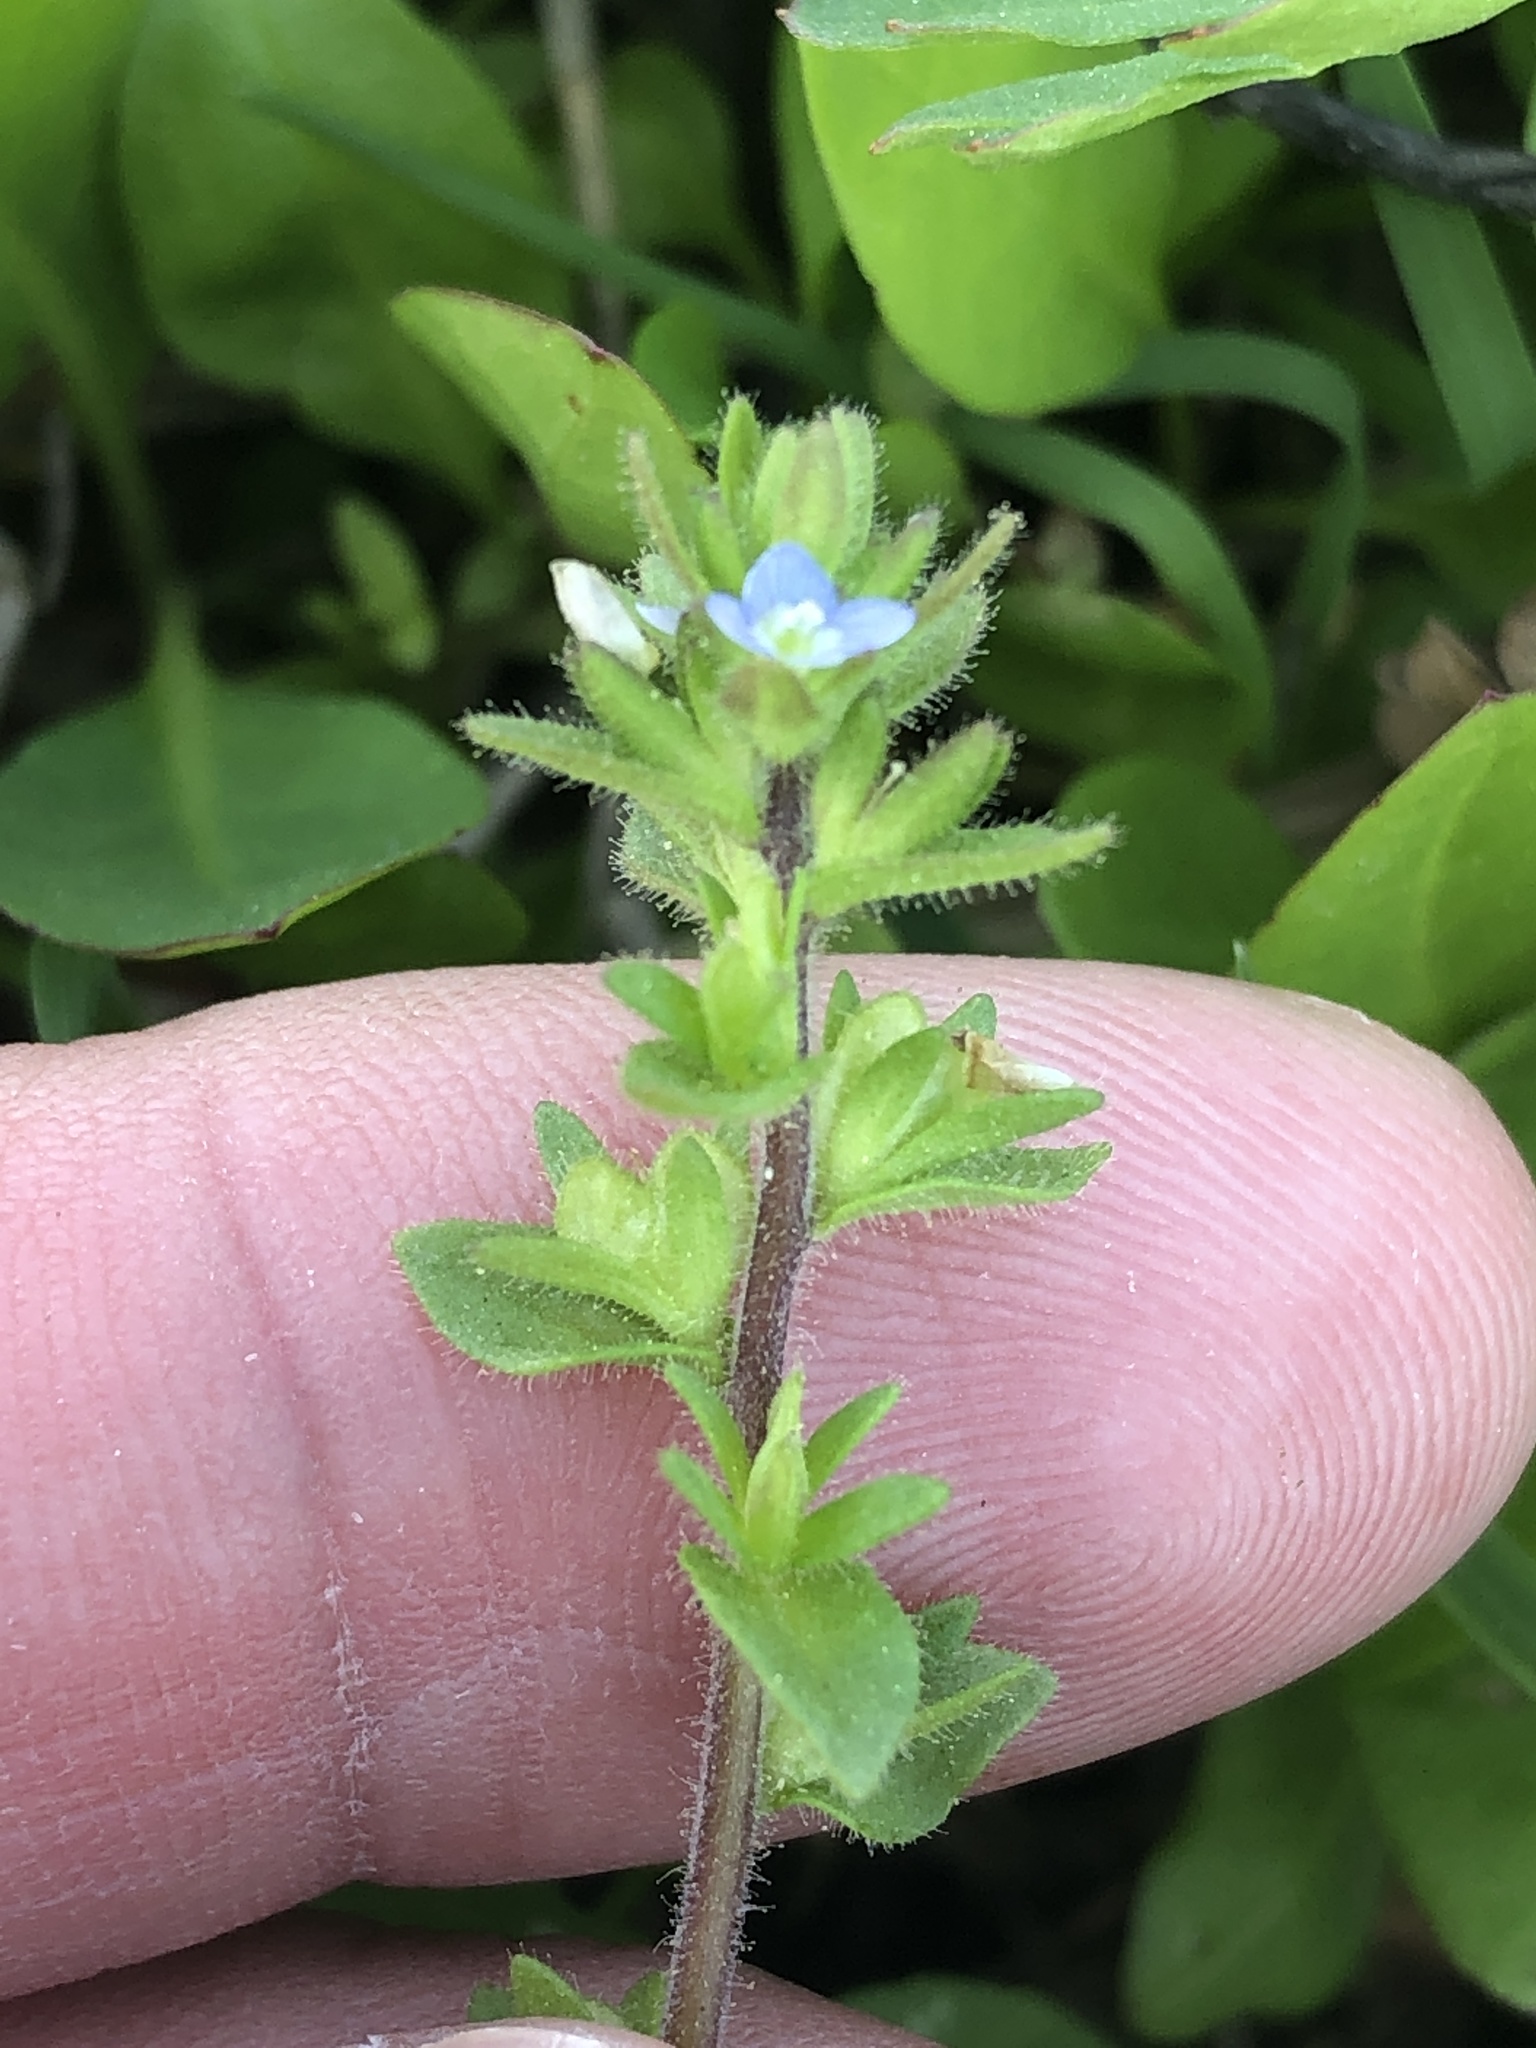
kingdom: Plantae
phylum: Tracheophyta
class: Magnoliopsida
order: Lamiales
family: Plantaginaceae
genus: Veronica
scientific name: Veronica arvensis
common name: Corn speedwell
